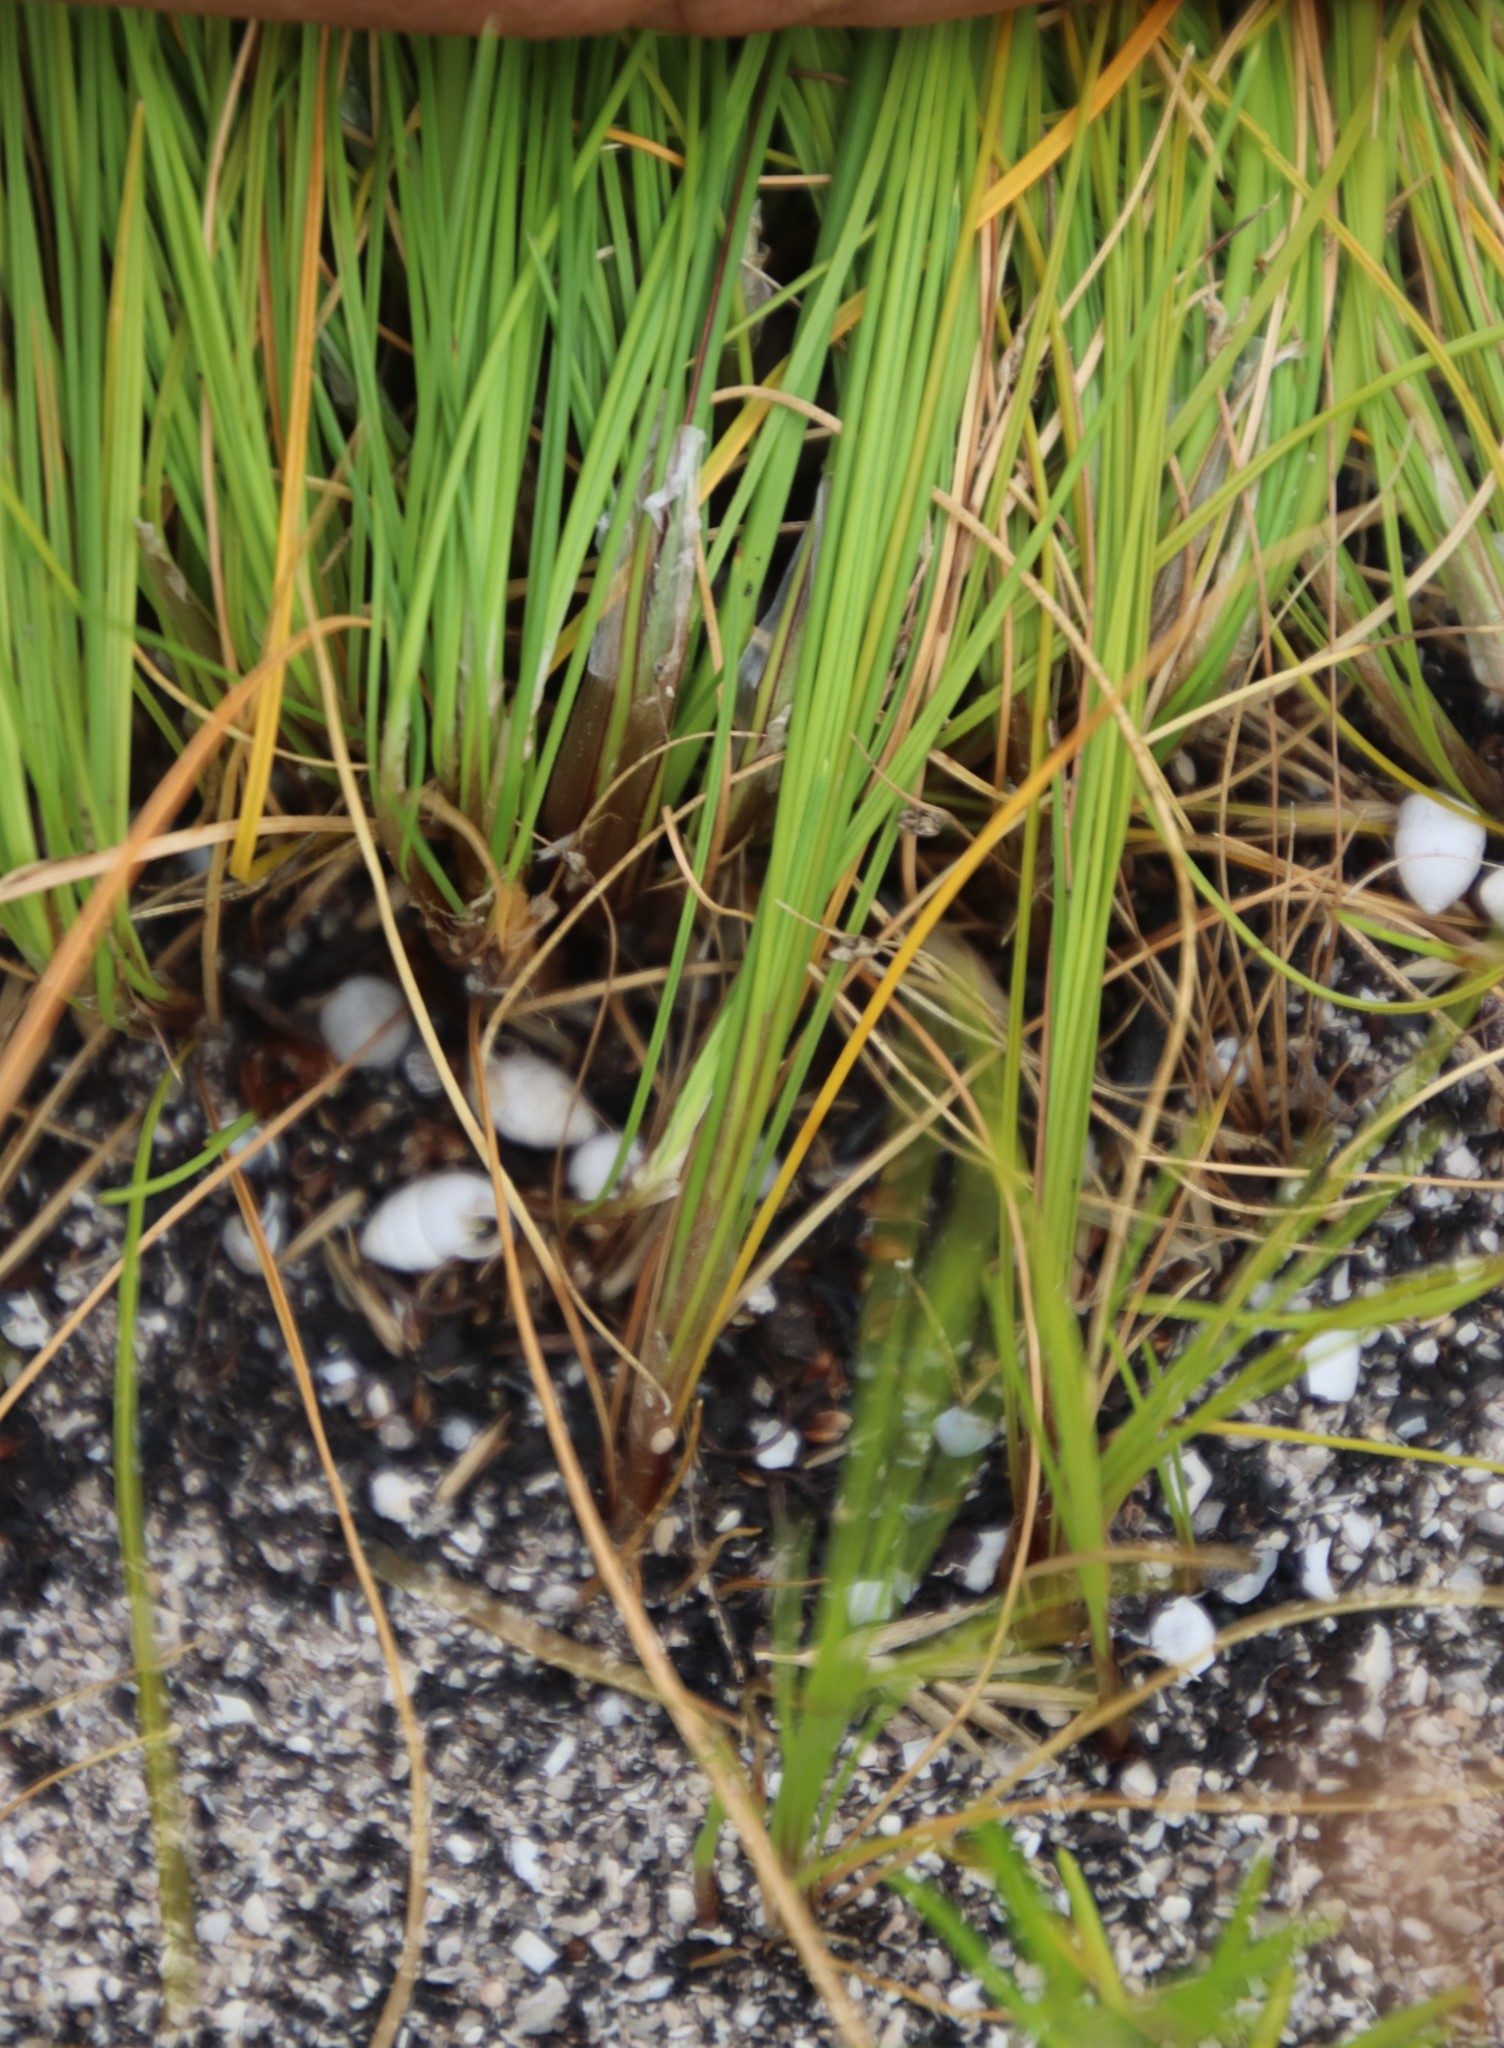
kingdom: Plantae
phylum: Tracheophyta
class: Liliopsida
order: Poales
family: Cyperaceae
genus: Ficinia
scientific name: Ficinia bulbosa
